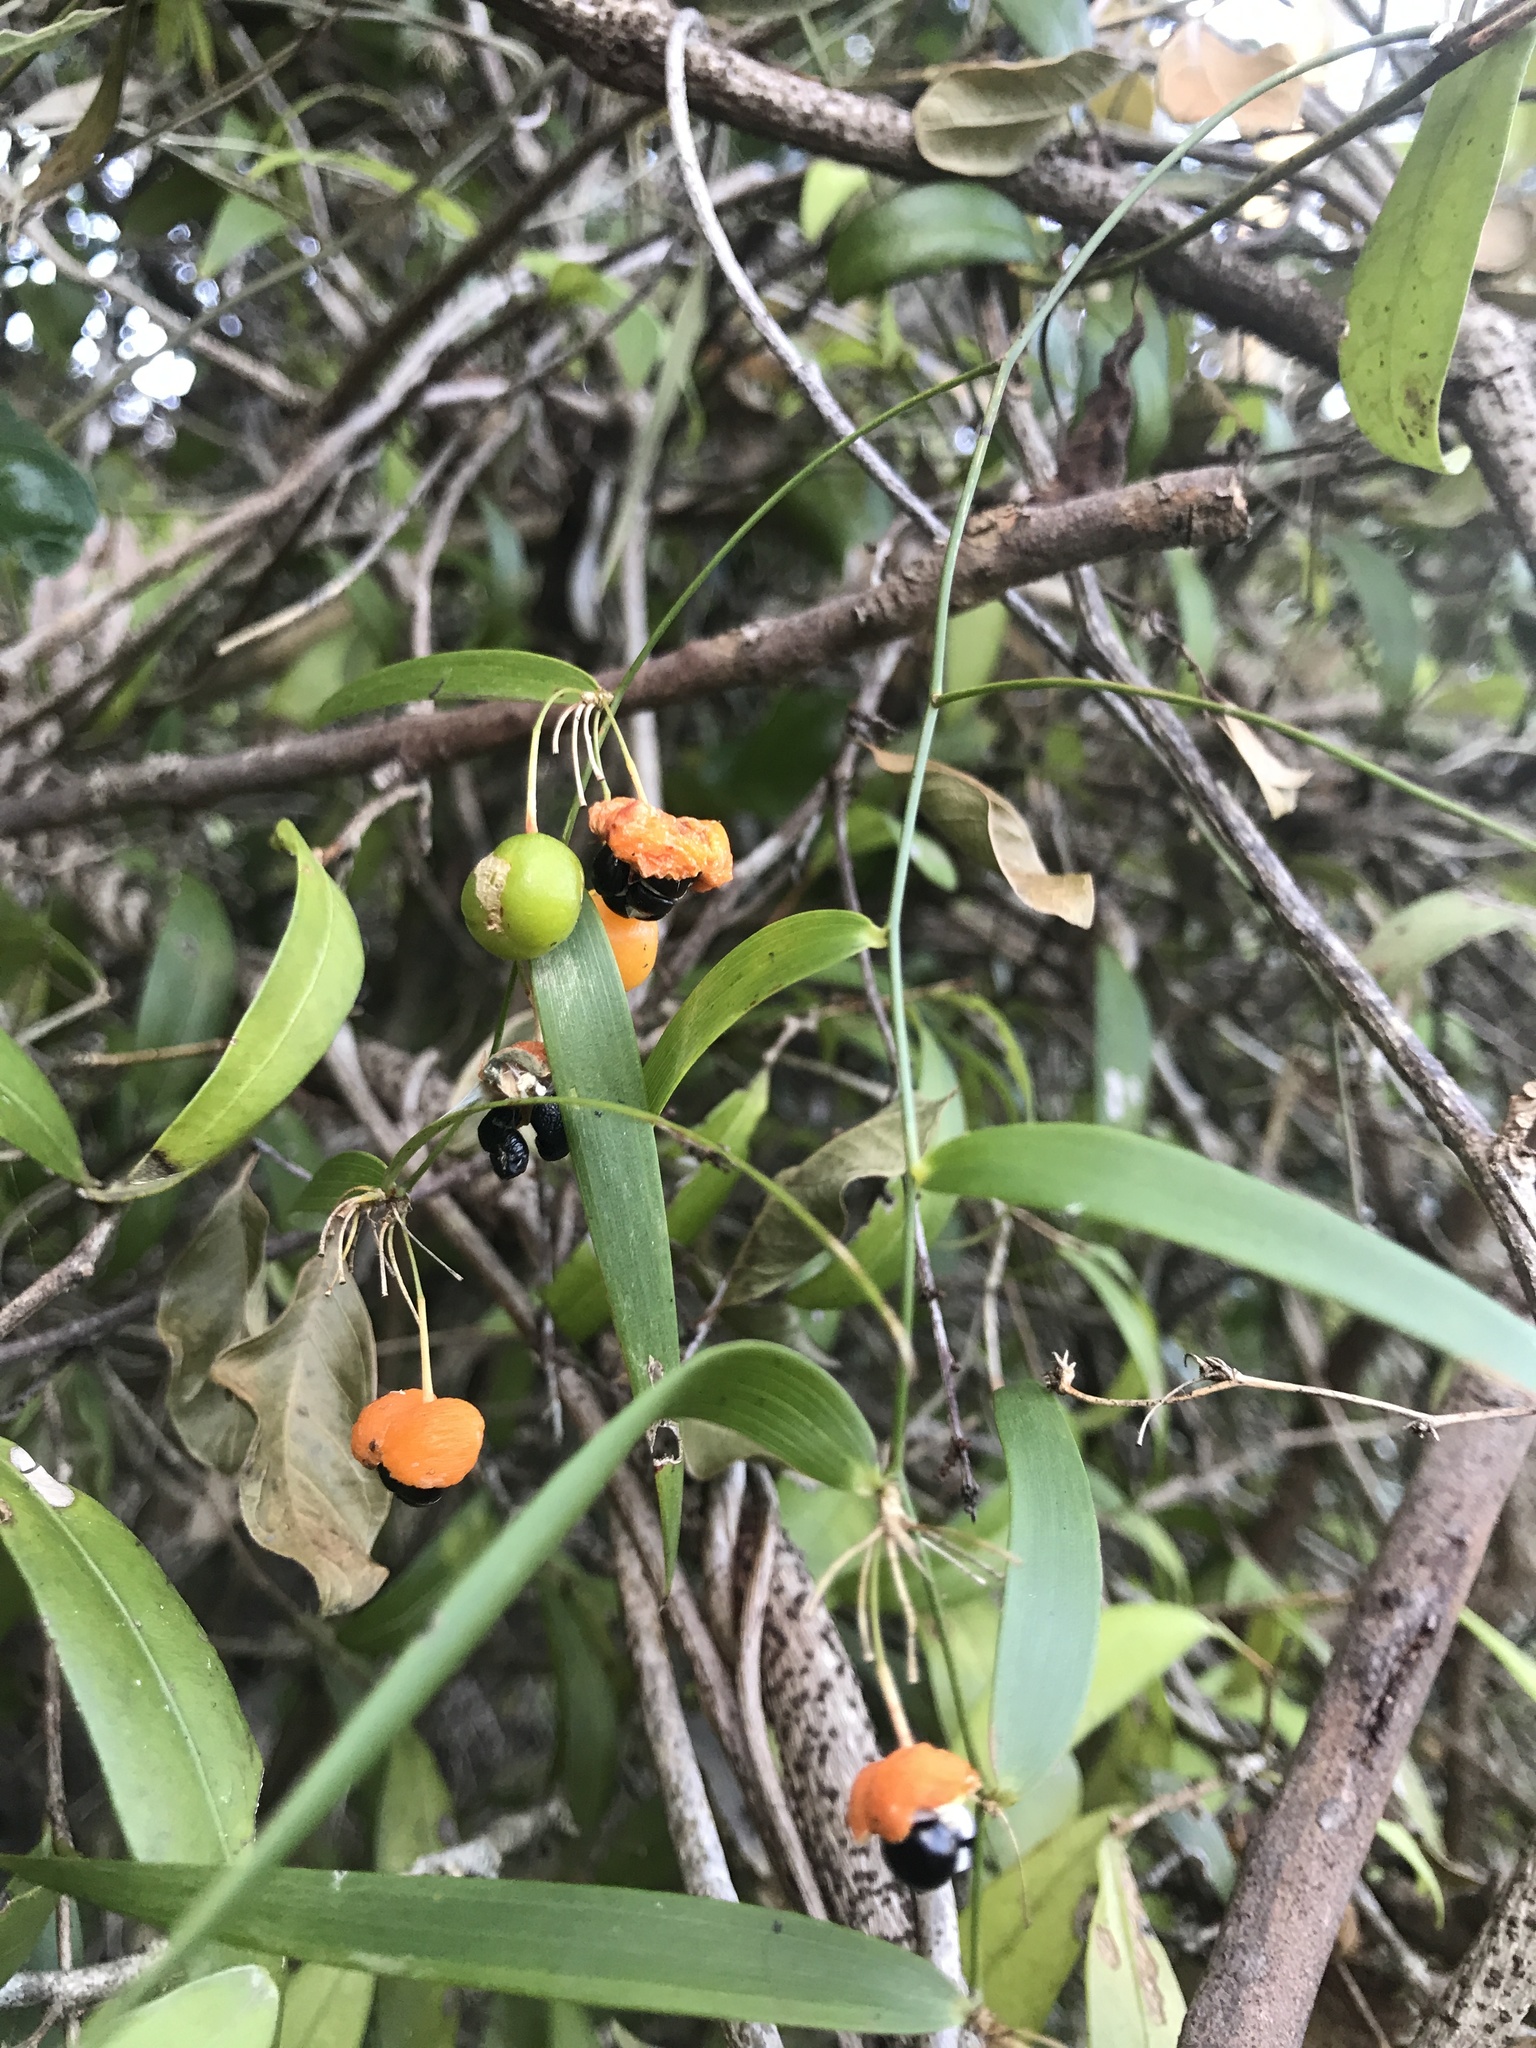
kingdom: Plantae
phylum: Tracheophyta
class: Liliopsida
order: Asparagales
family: Asparagaceae
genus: Eustrephus
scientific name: Eustrephus latifolius
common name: Orangevine
